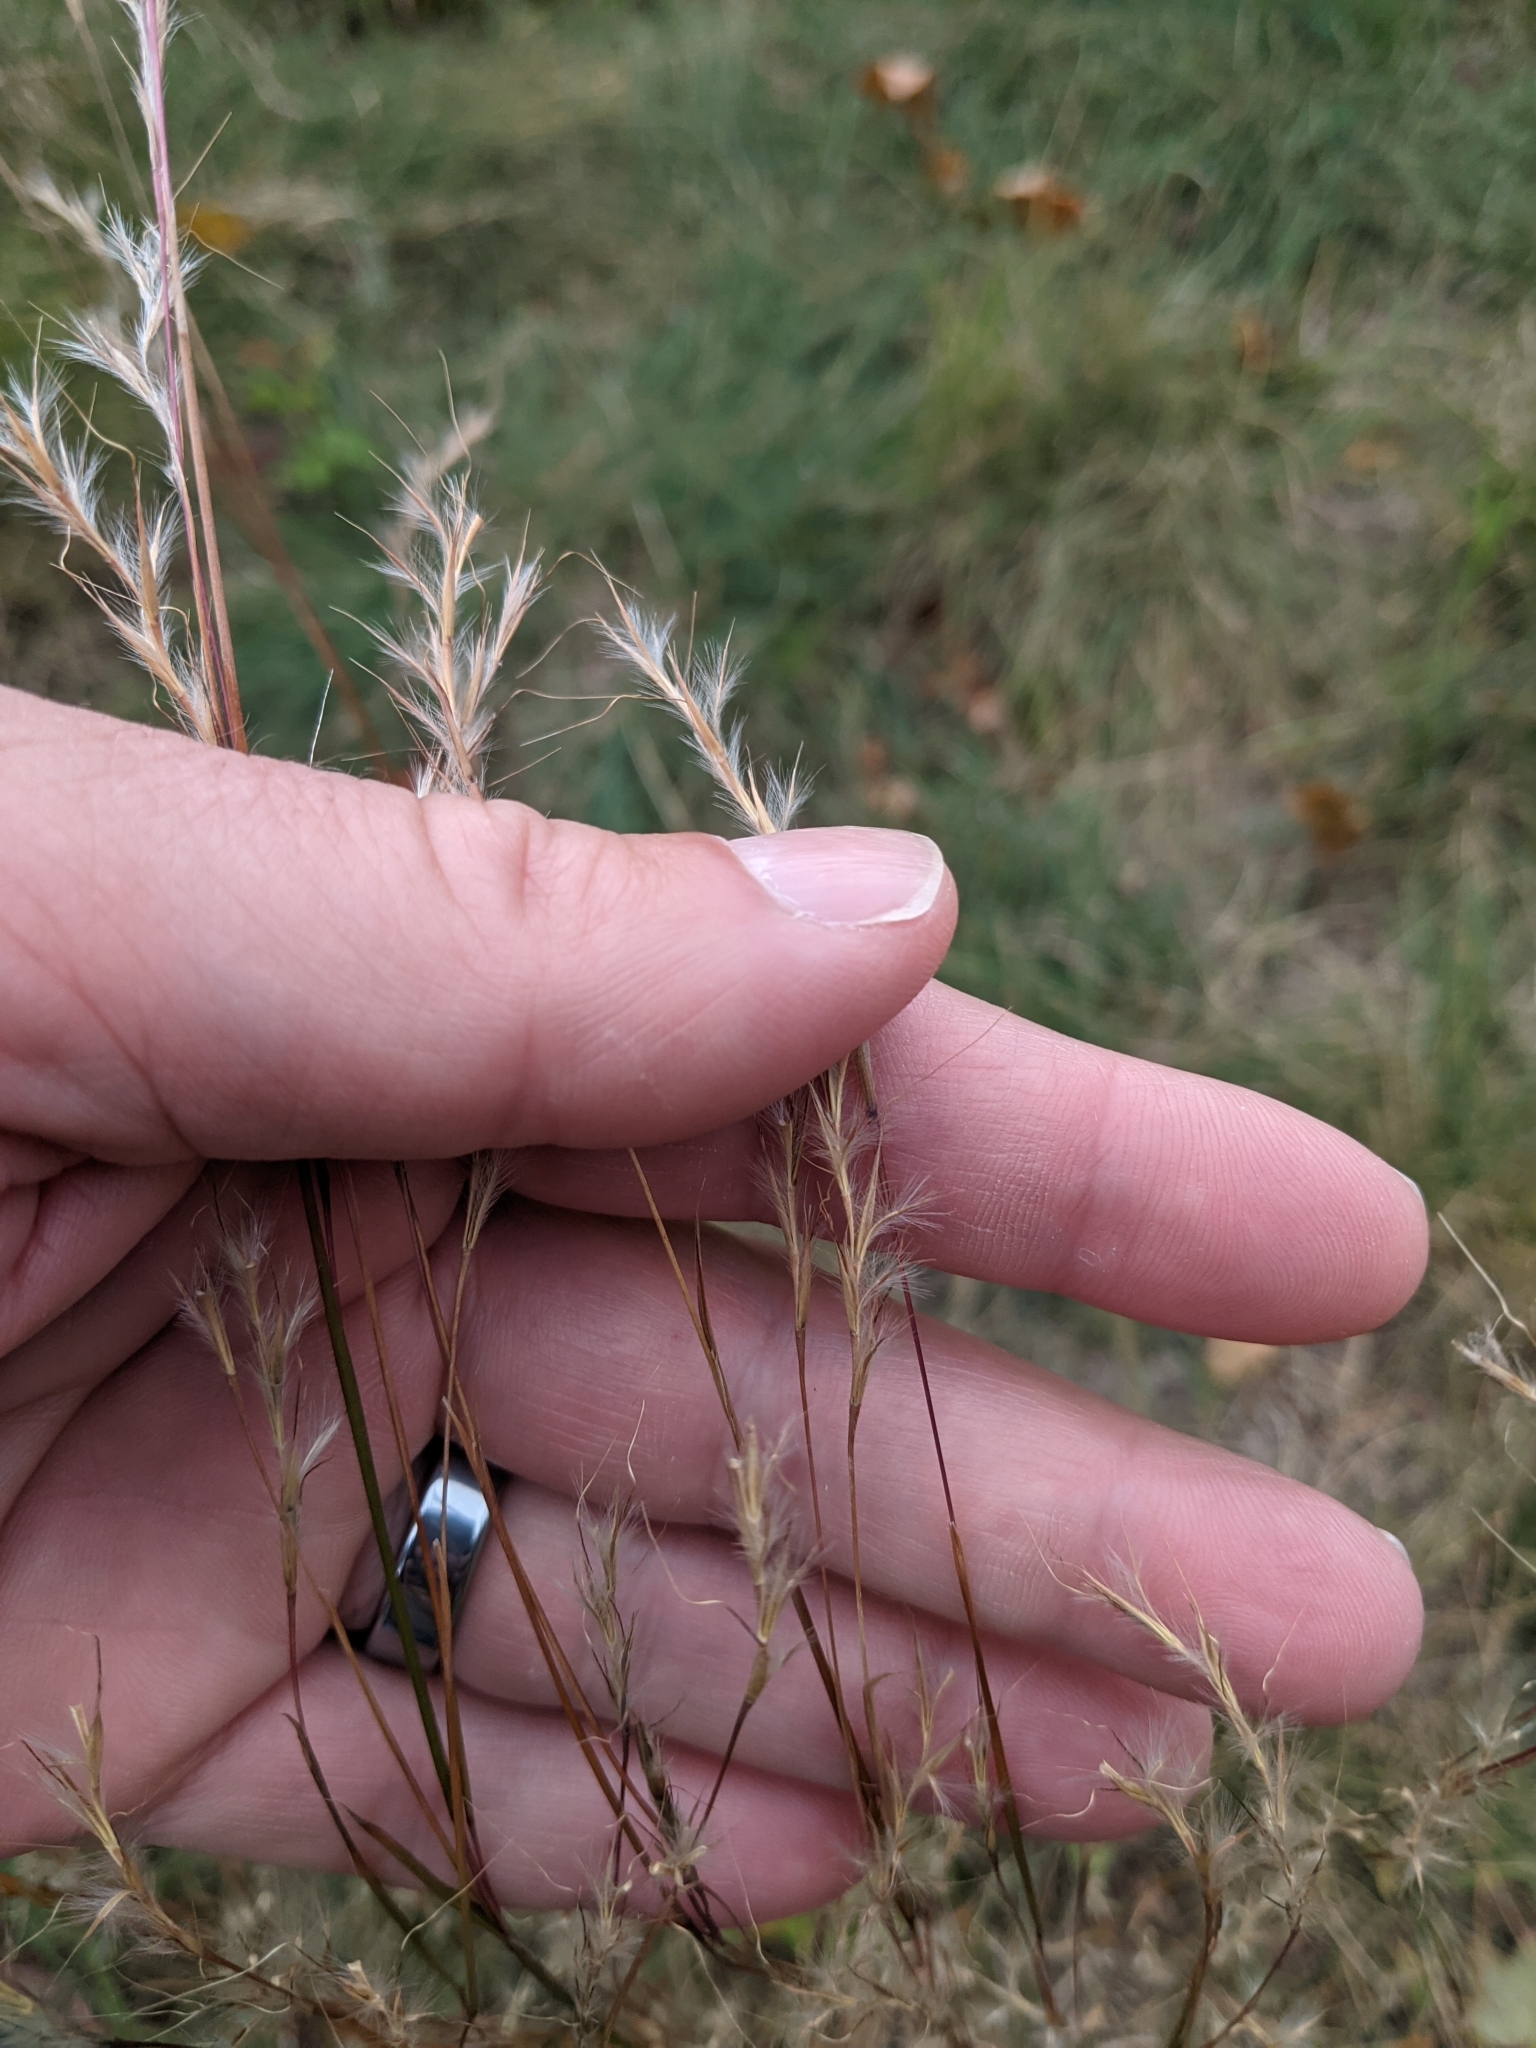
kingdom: Plantae
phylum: Tracheophyta
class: Liliopsida
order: Poales
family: Poaceae
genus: Schizachyrium
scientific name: Schizachyrium scoparium
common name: Little bluestem
